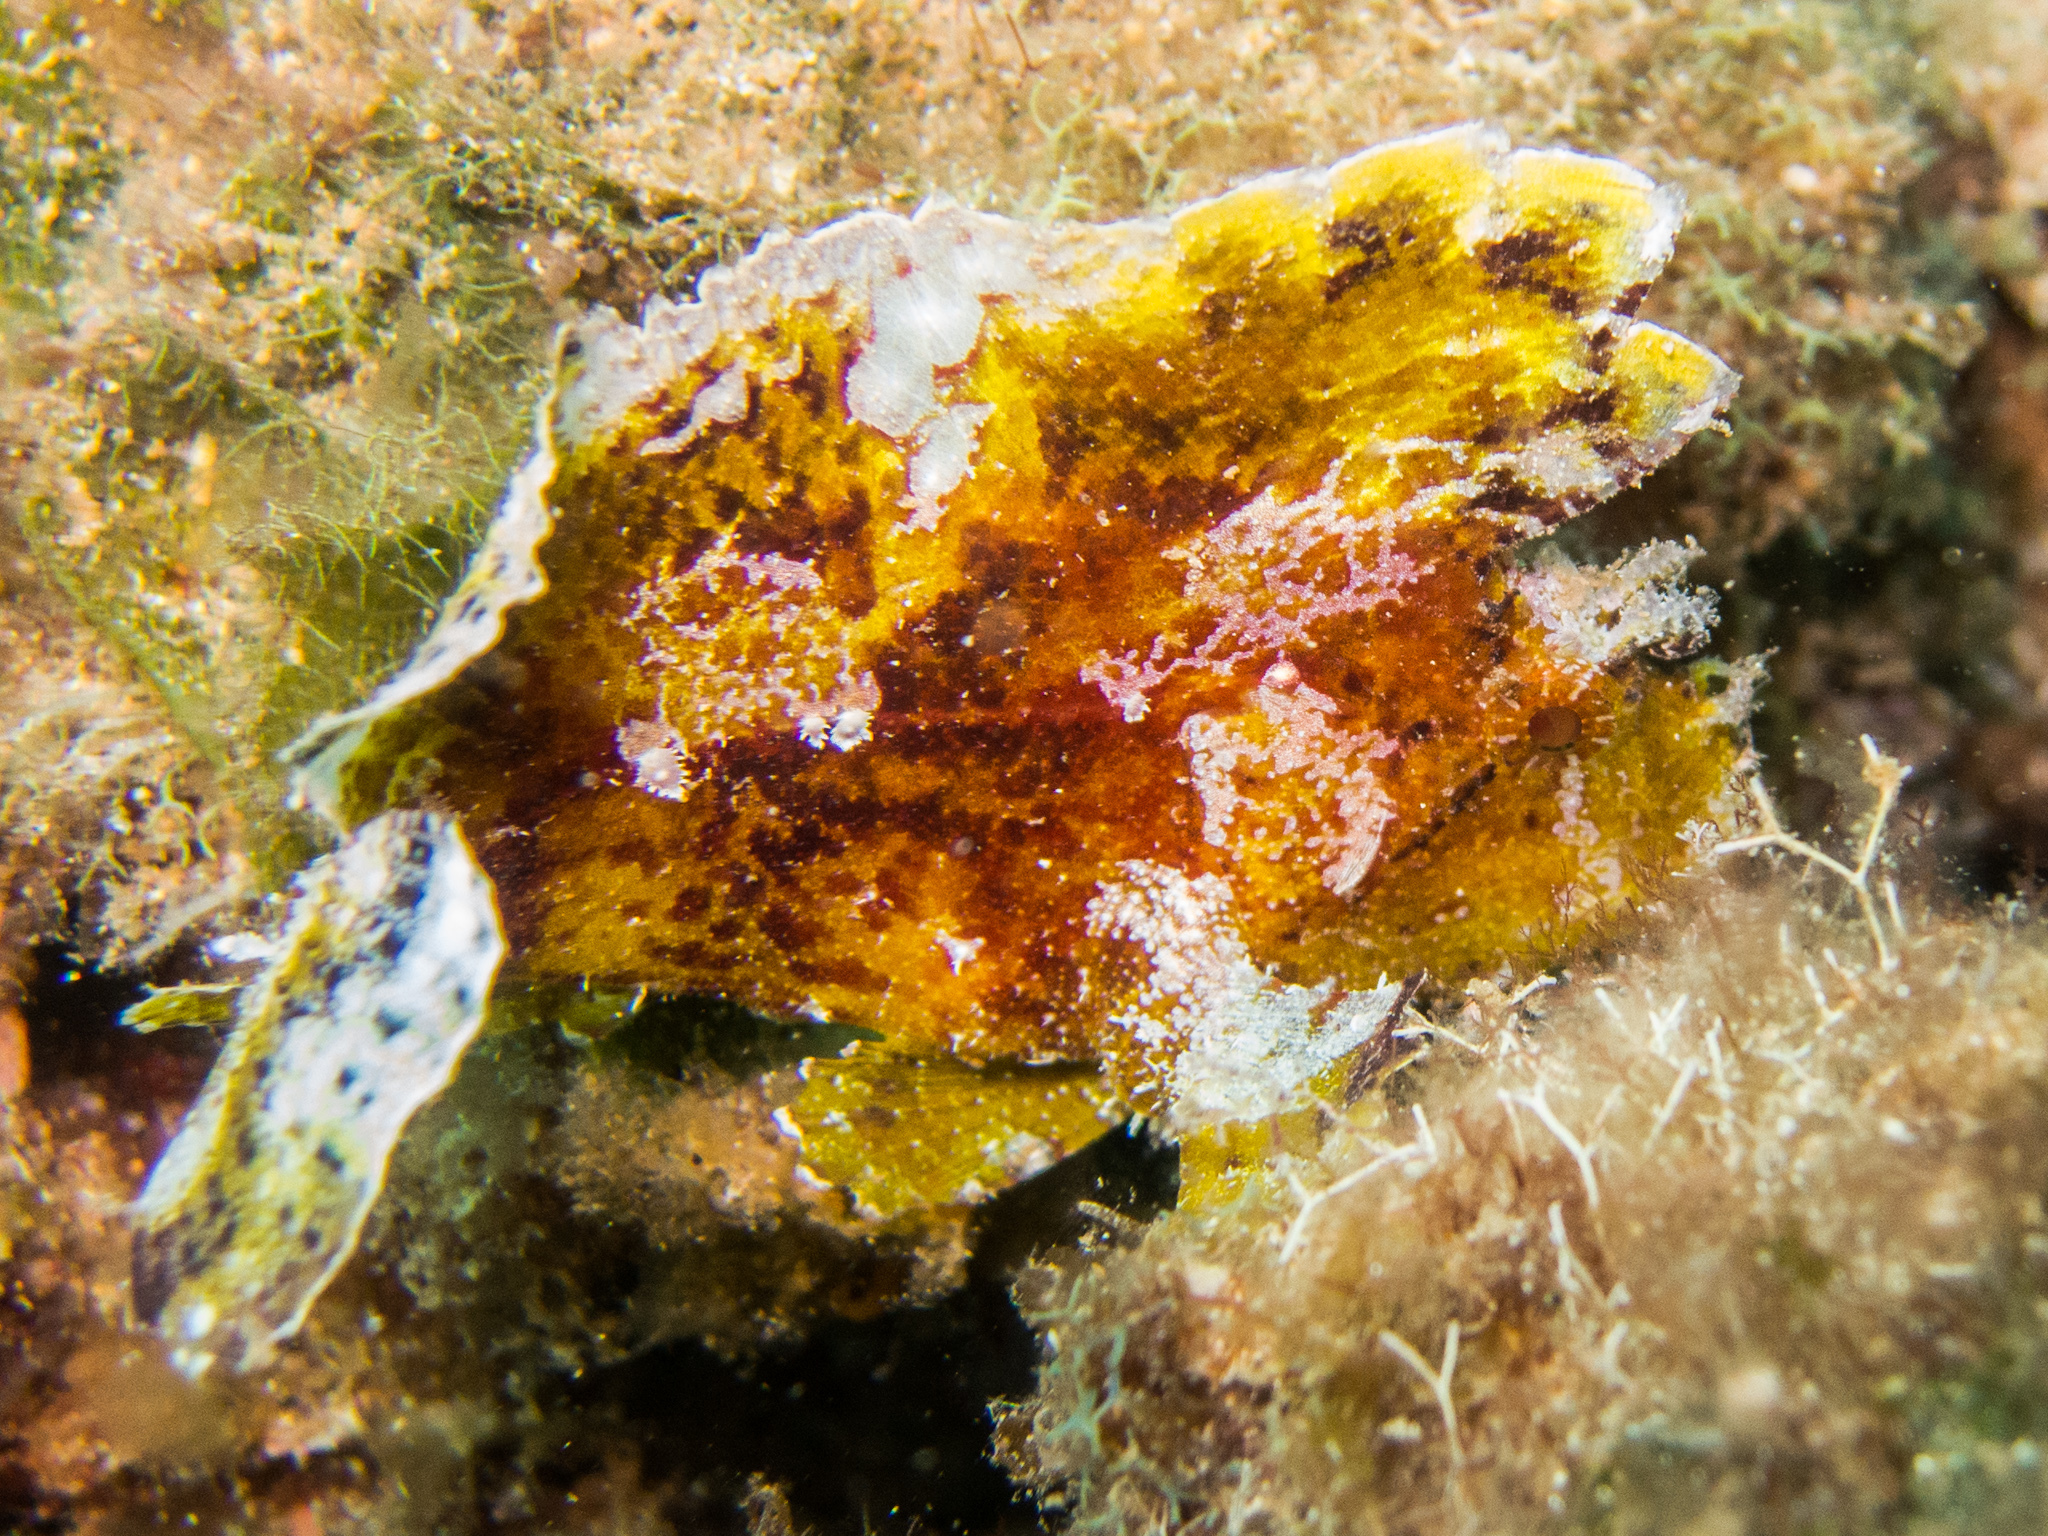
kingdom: Animalia
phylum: Chordata
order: Scorpaeniformes
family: Scorpaenidae
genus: Taenianotus
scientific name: Taenianotus triacanthus
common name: Leaf scorpionfish
